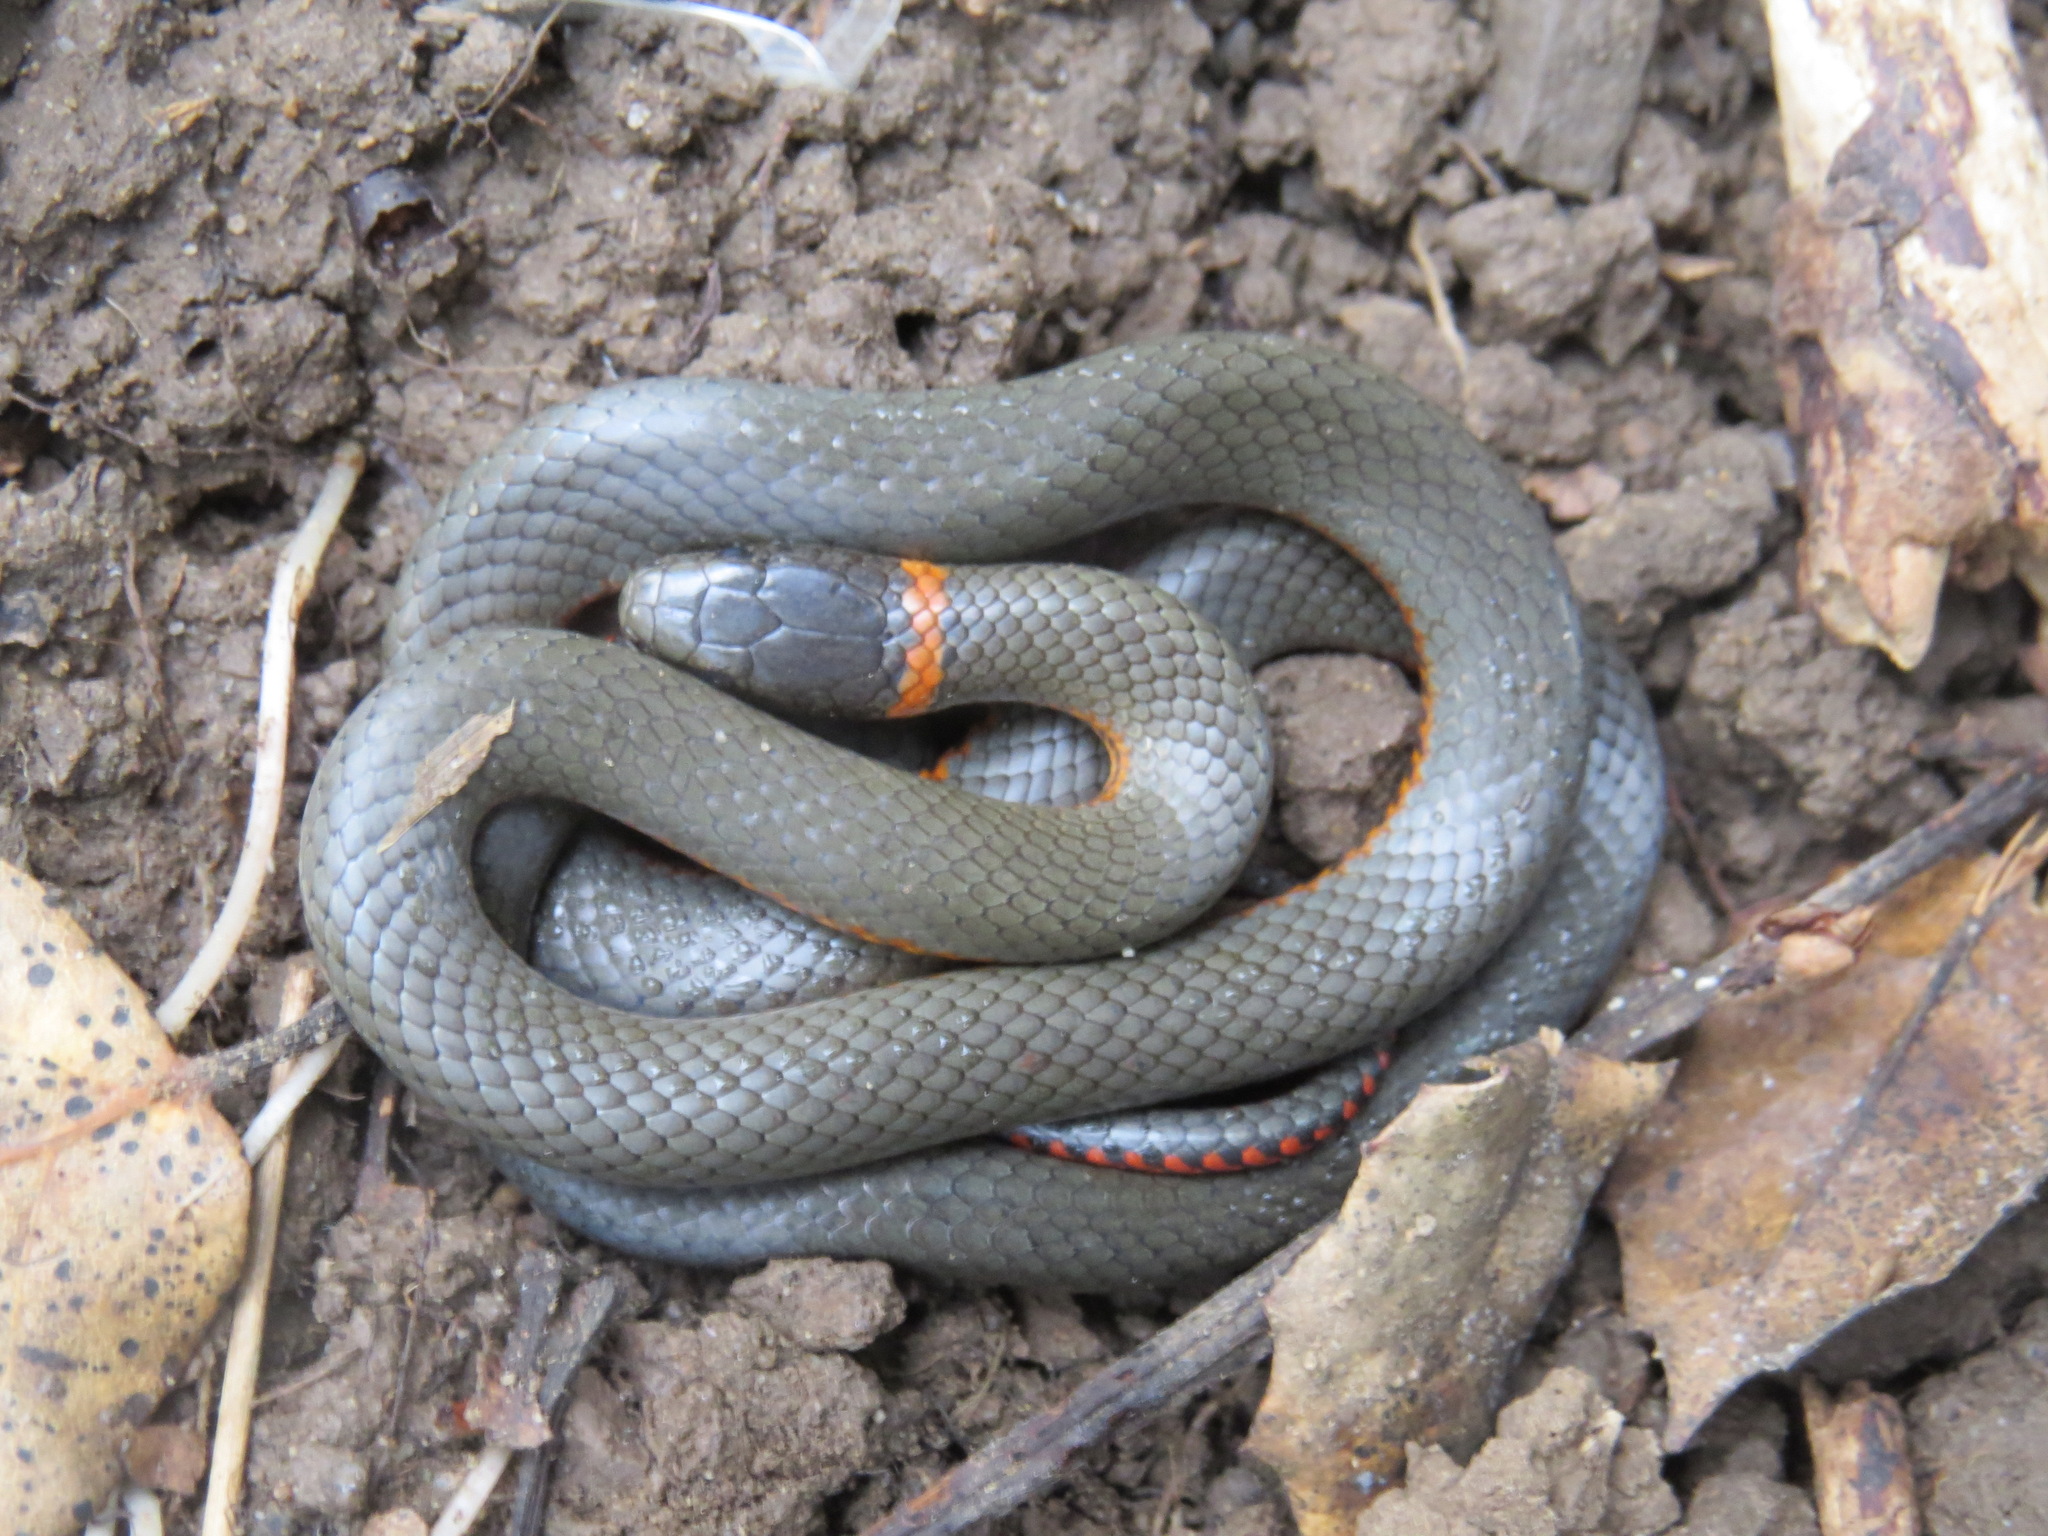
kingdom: Animalia
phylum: Chordata
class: Squamata
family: Colubridae
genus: Diadophis
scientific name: Diadophis punctatus
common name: Ringneck snake
